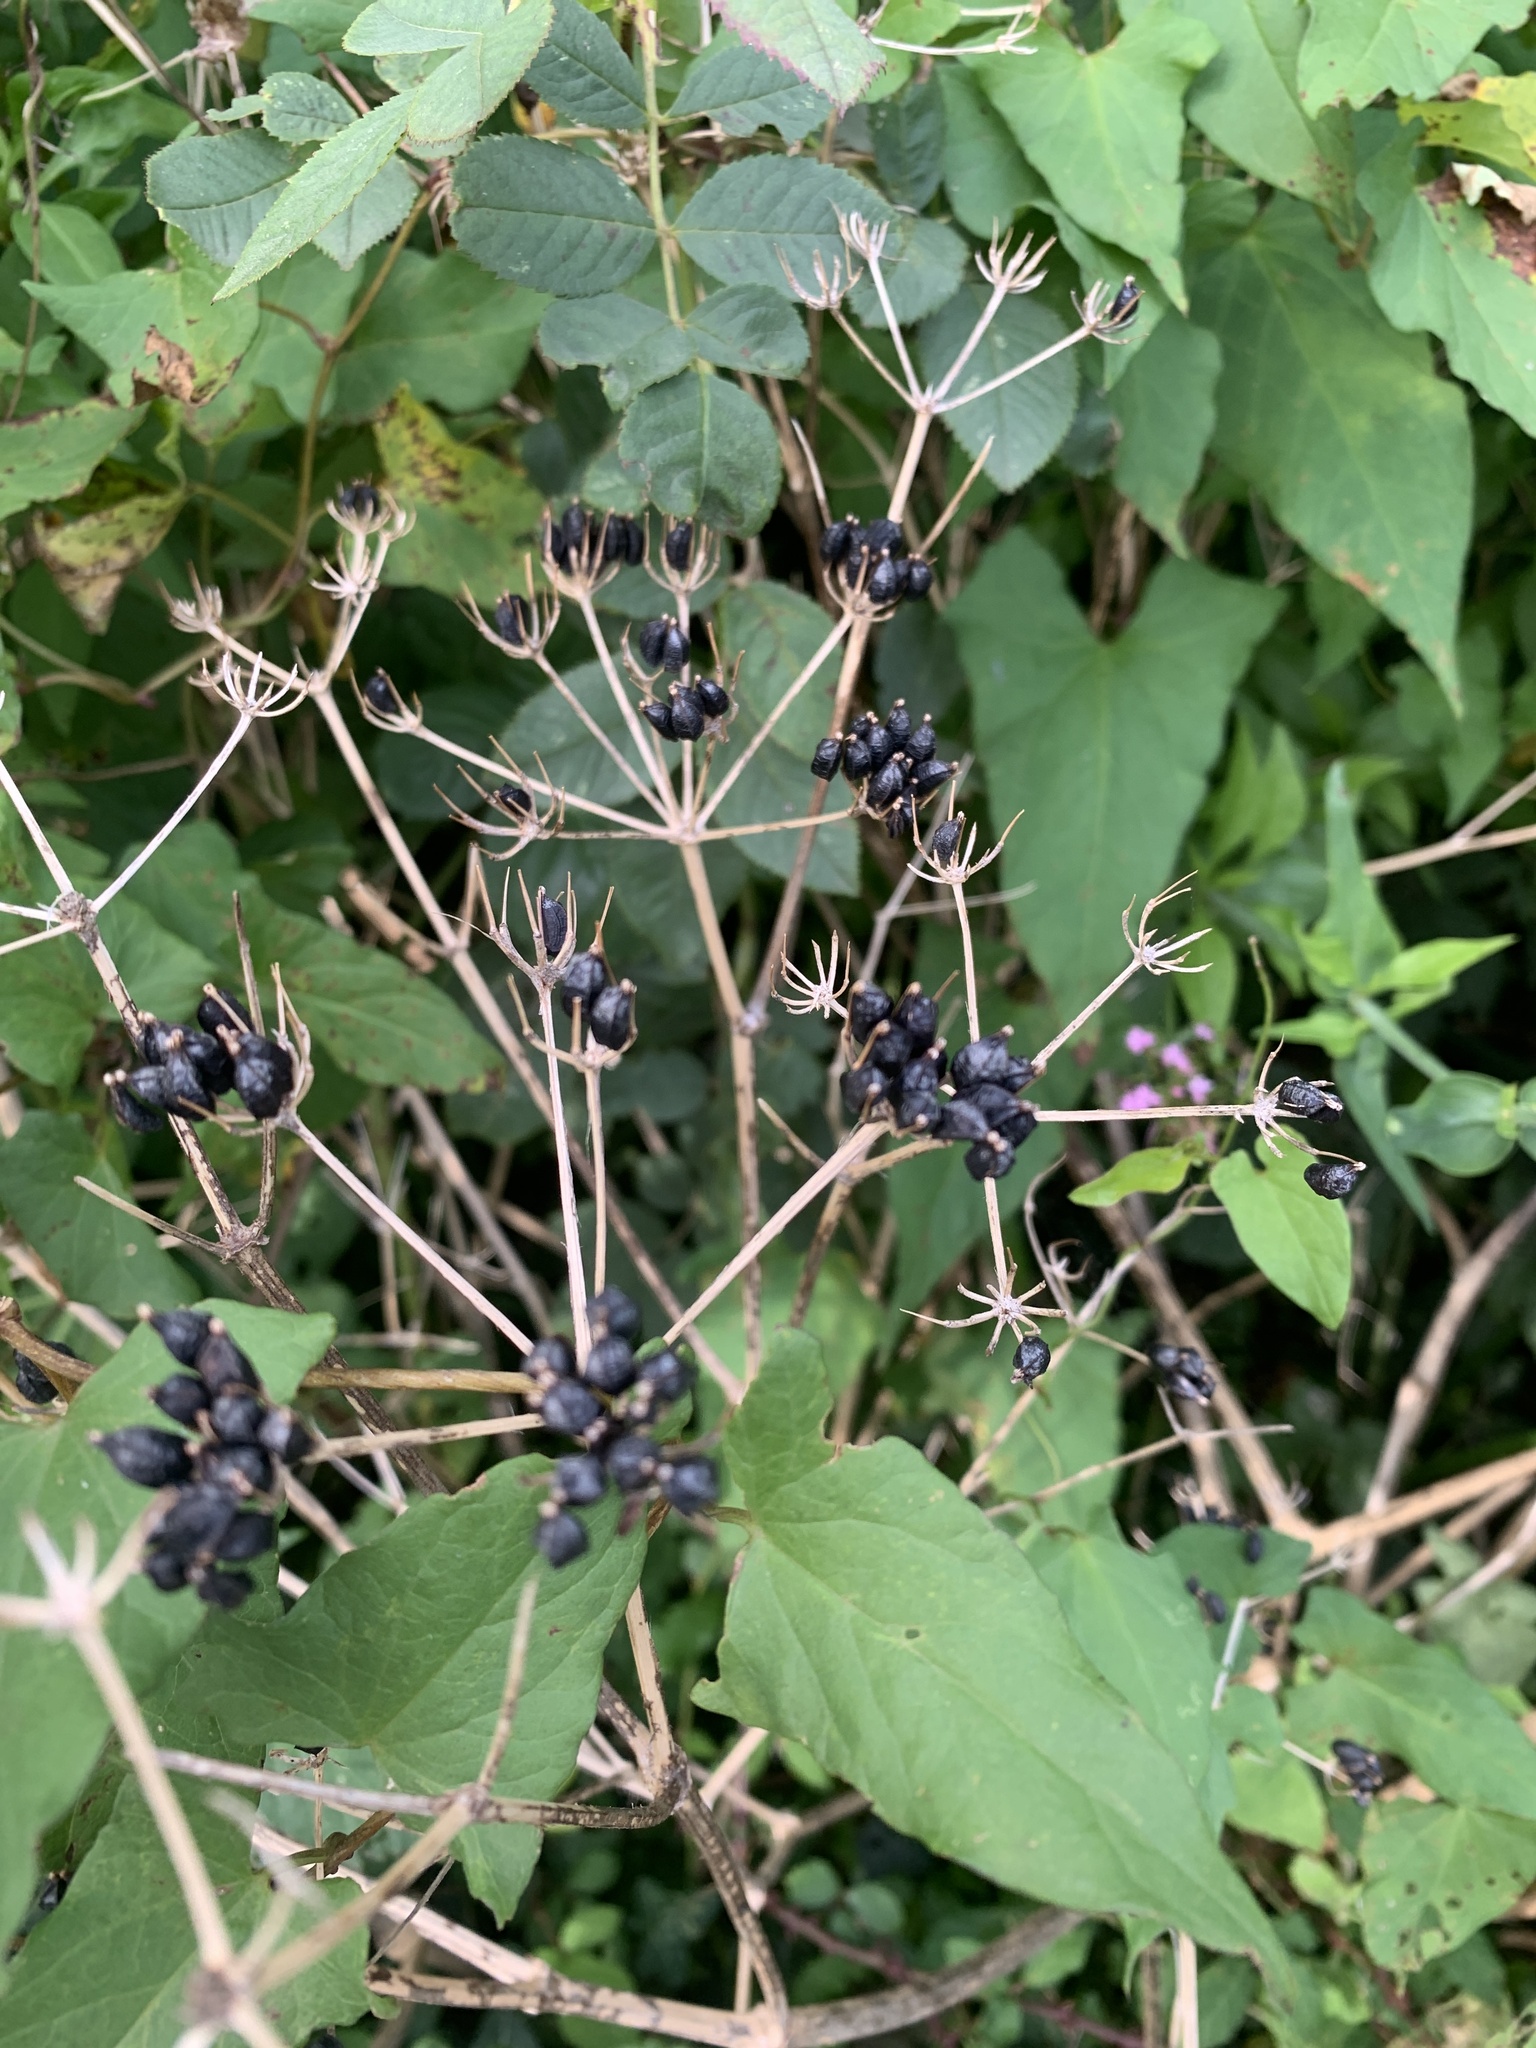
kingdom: Plantae
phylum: Tracheophyta
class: Magnoliopsida
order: Apiales
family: Apiaceae
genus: Smyrnium
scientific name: Smyrnium olusatrum
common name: Alexanders
